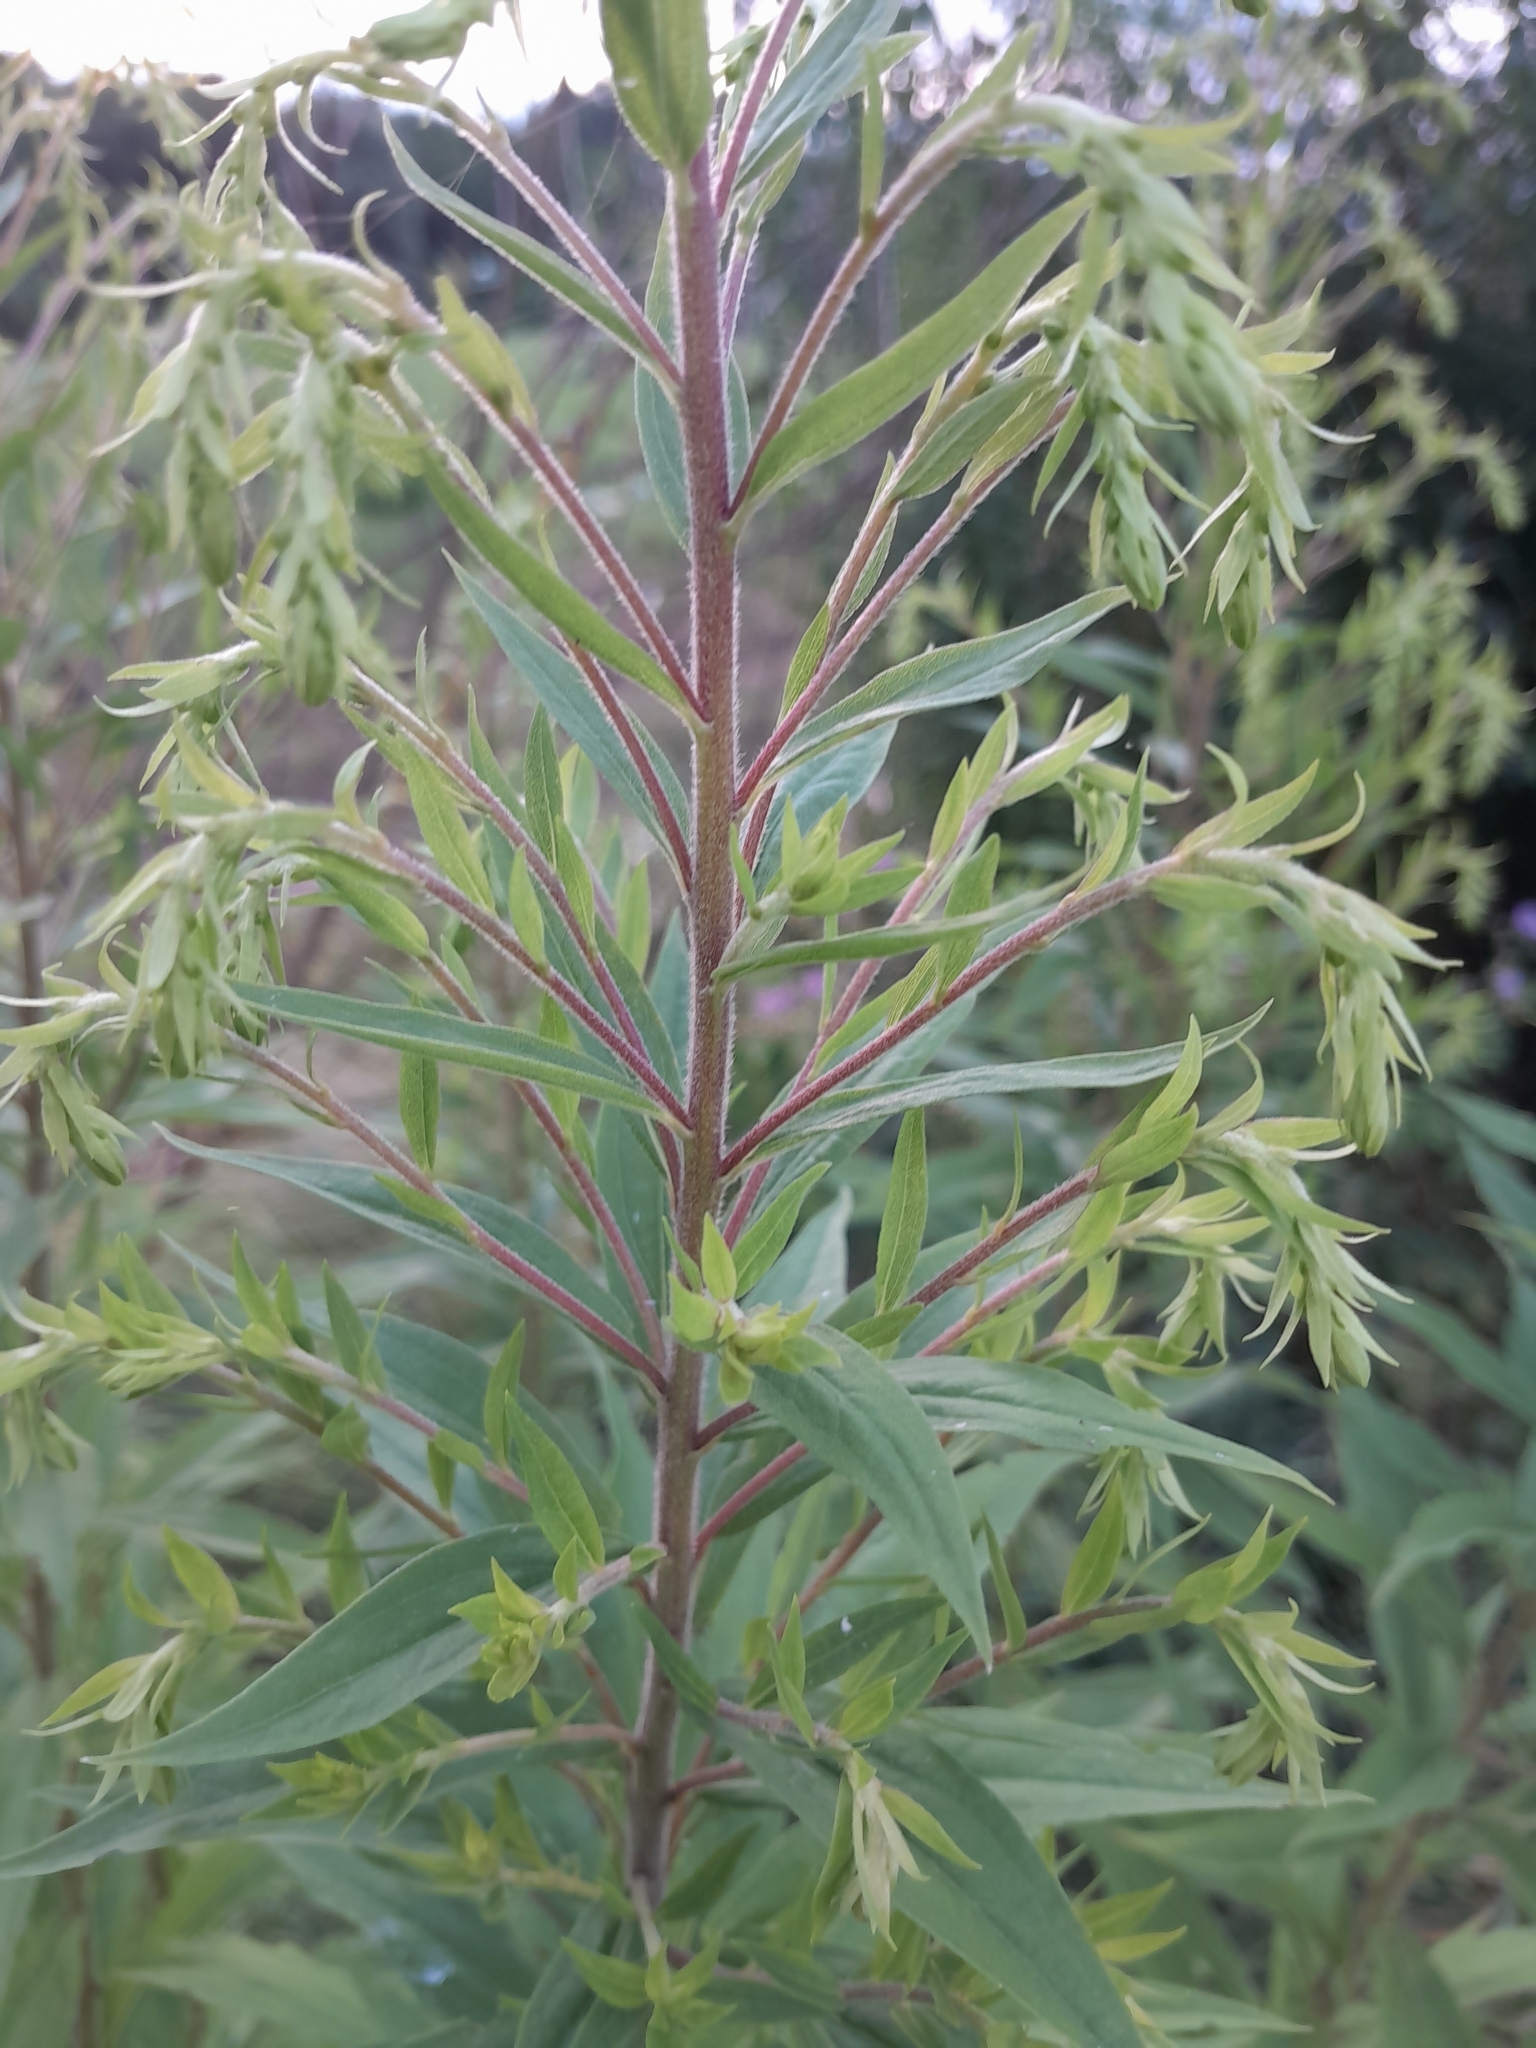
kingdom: Plantae
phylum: Tracheophyta
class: Magnoliopsida
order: Asterales
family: Asteraceae
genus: Solidago
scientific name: Solidago canadensis
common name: Canada goldenrod
